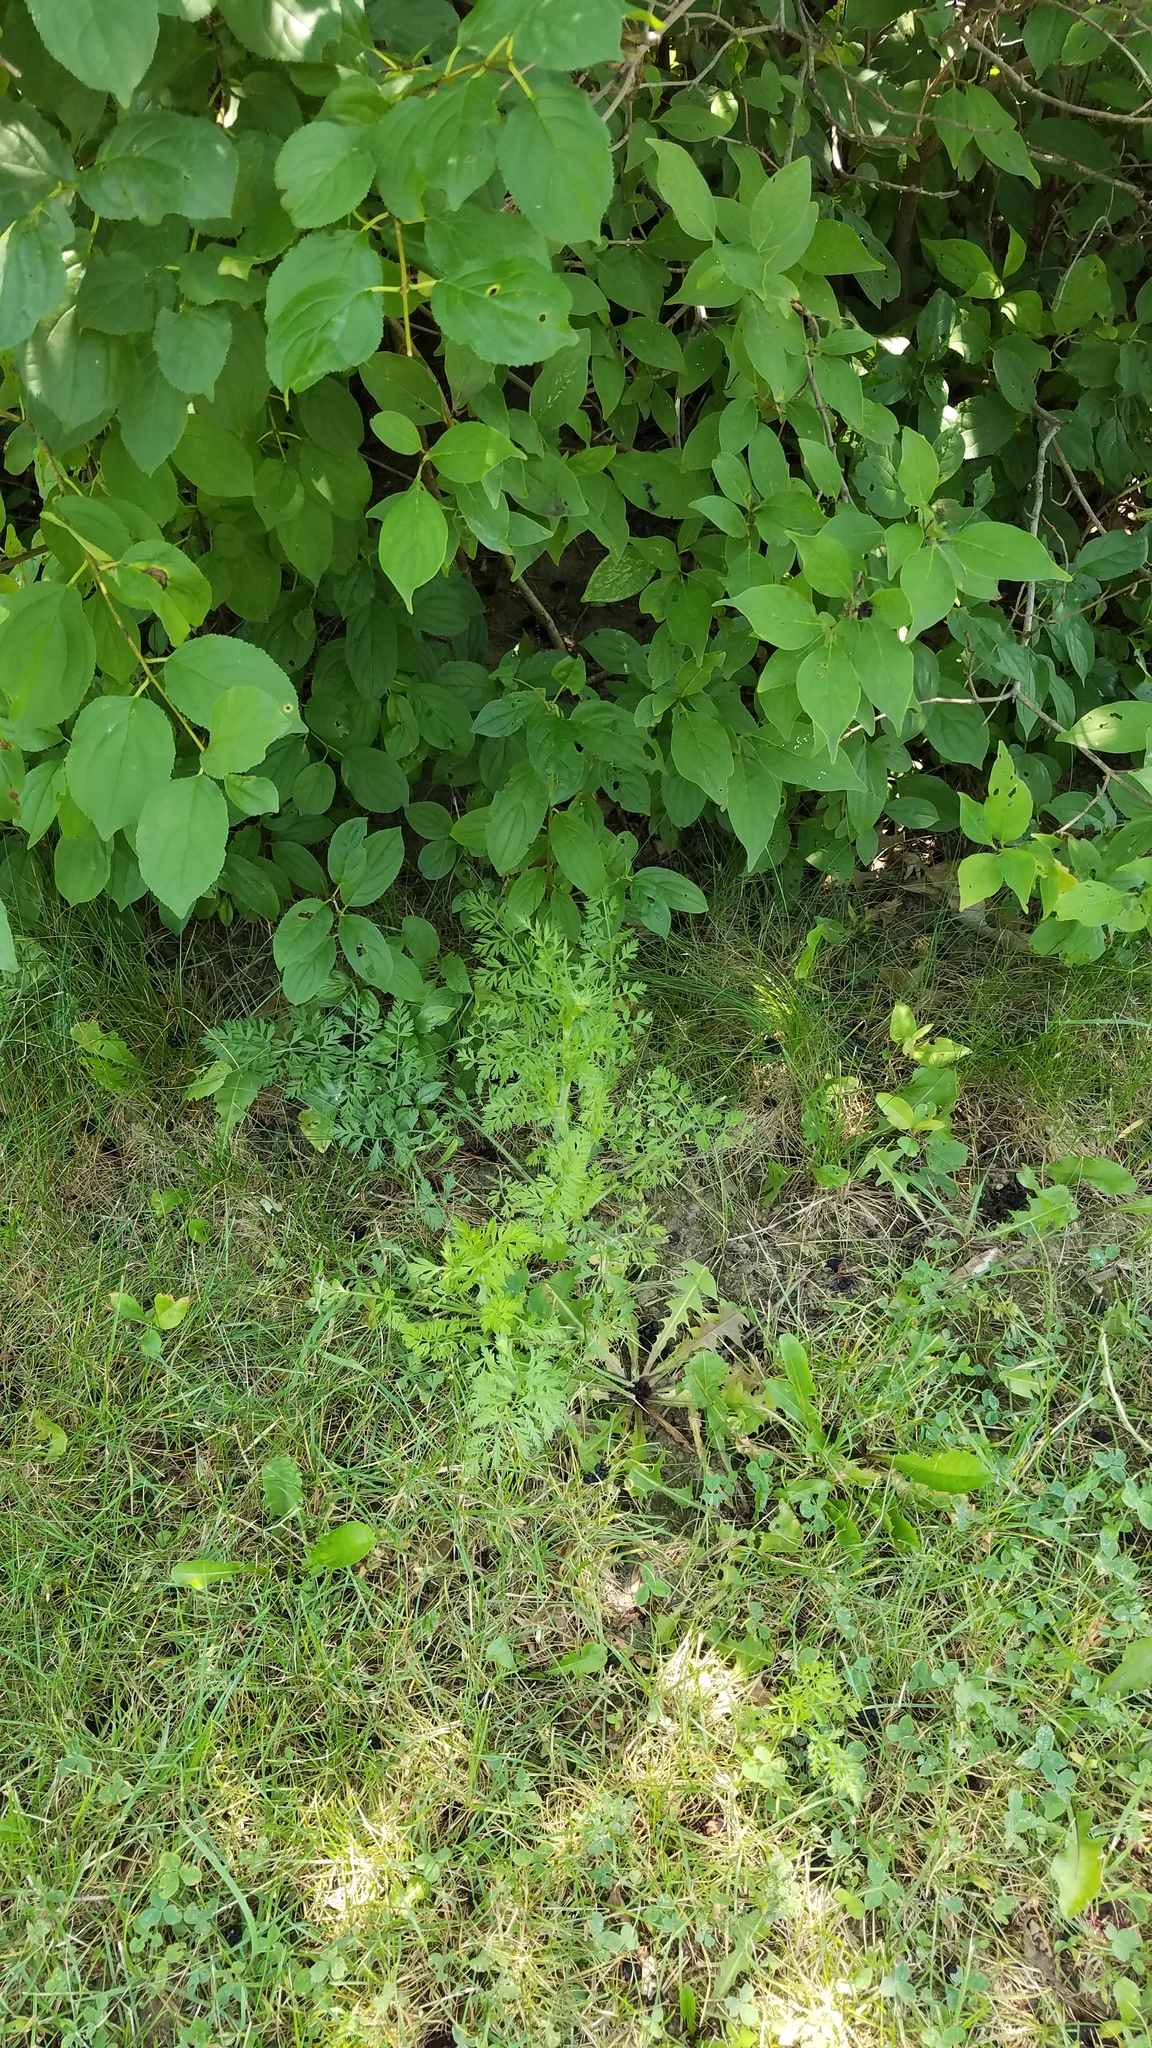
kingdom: Plantae
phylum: Tracheophyta
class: Magnoliopsida
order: Apiales
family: Apiaceae
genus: Daucus
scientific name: Daucus carota
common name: Wild carrot
